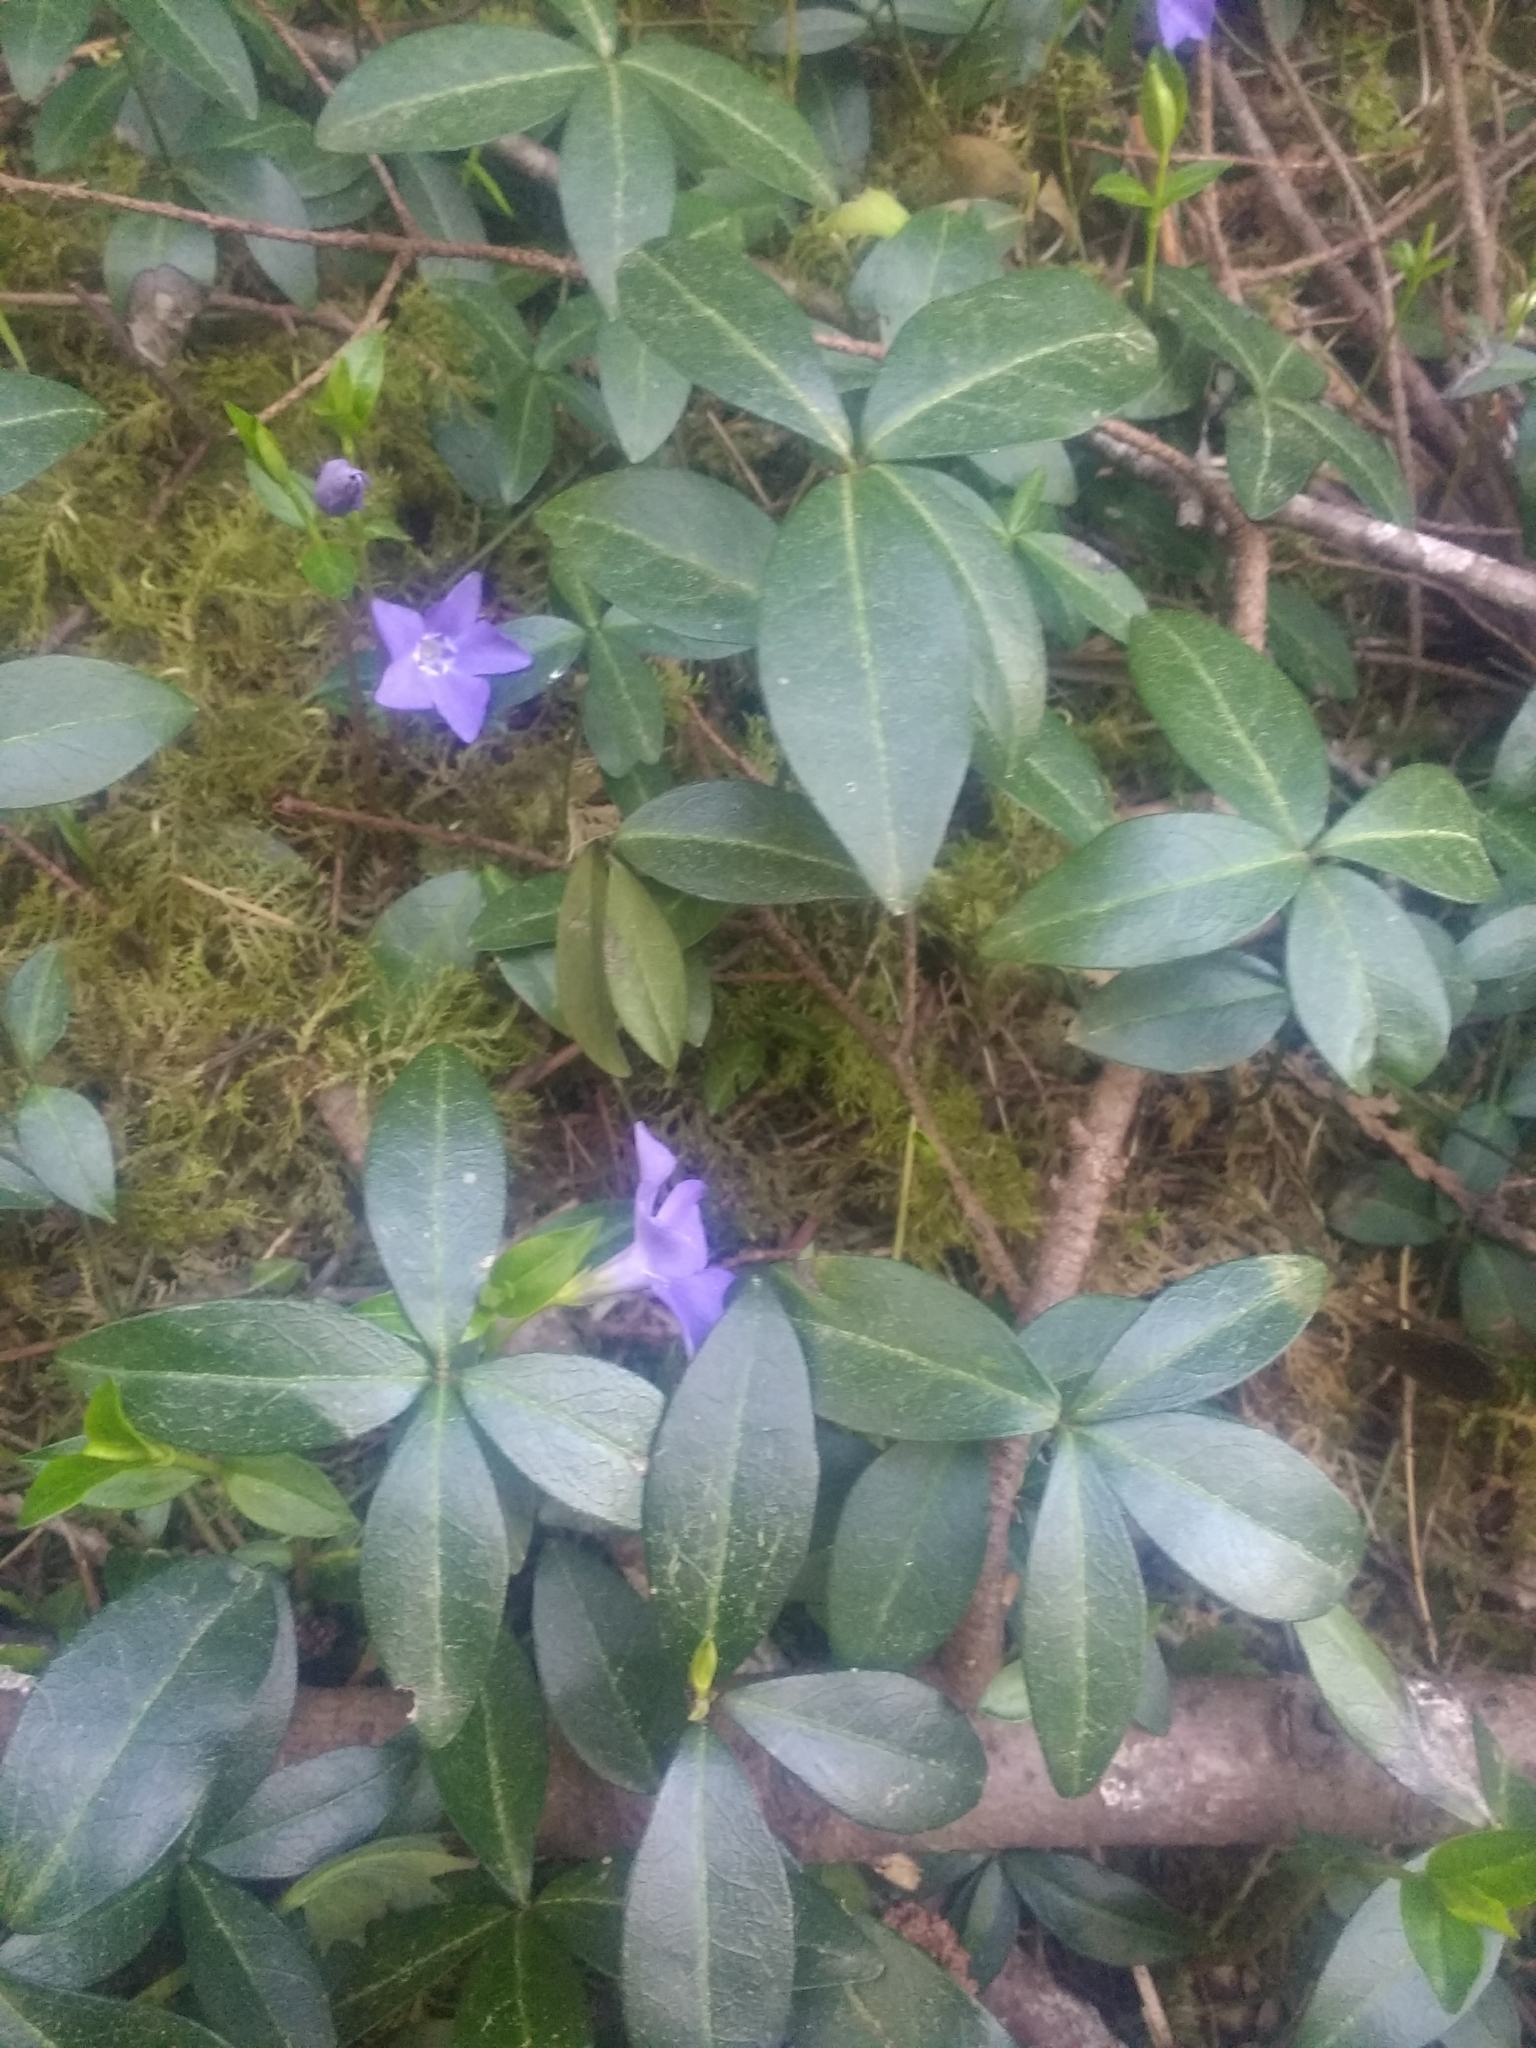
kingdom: Plantae
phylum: Tracheophyta
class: Magnoliopsida
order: Gentianales
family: Apocynaceae
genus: Vinca
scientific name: Vinca minor
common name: Lesser periwinkle
